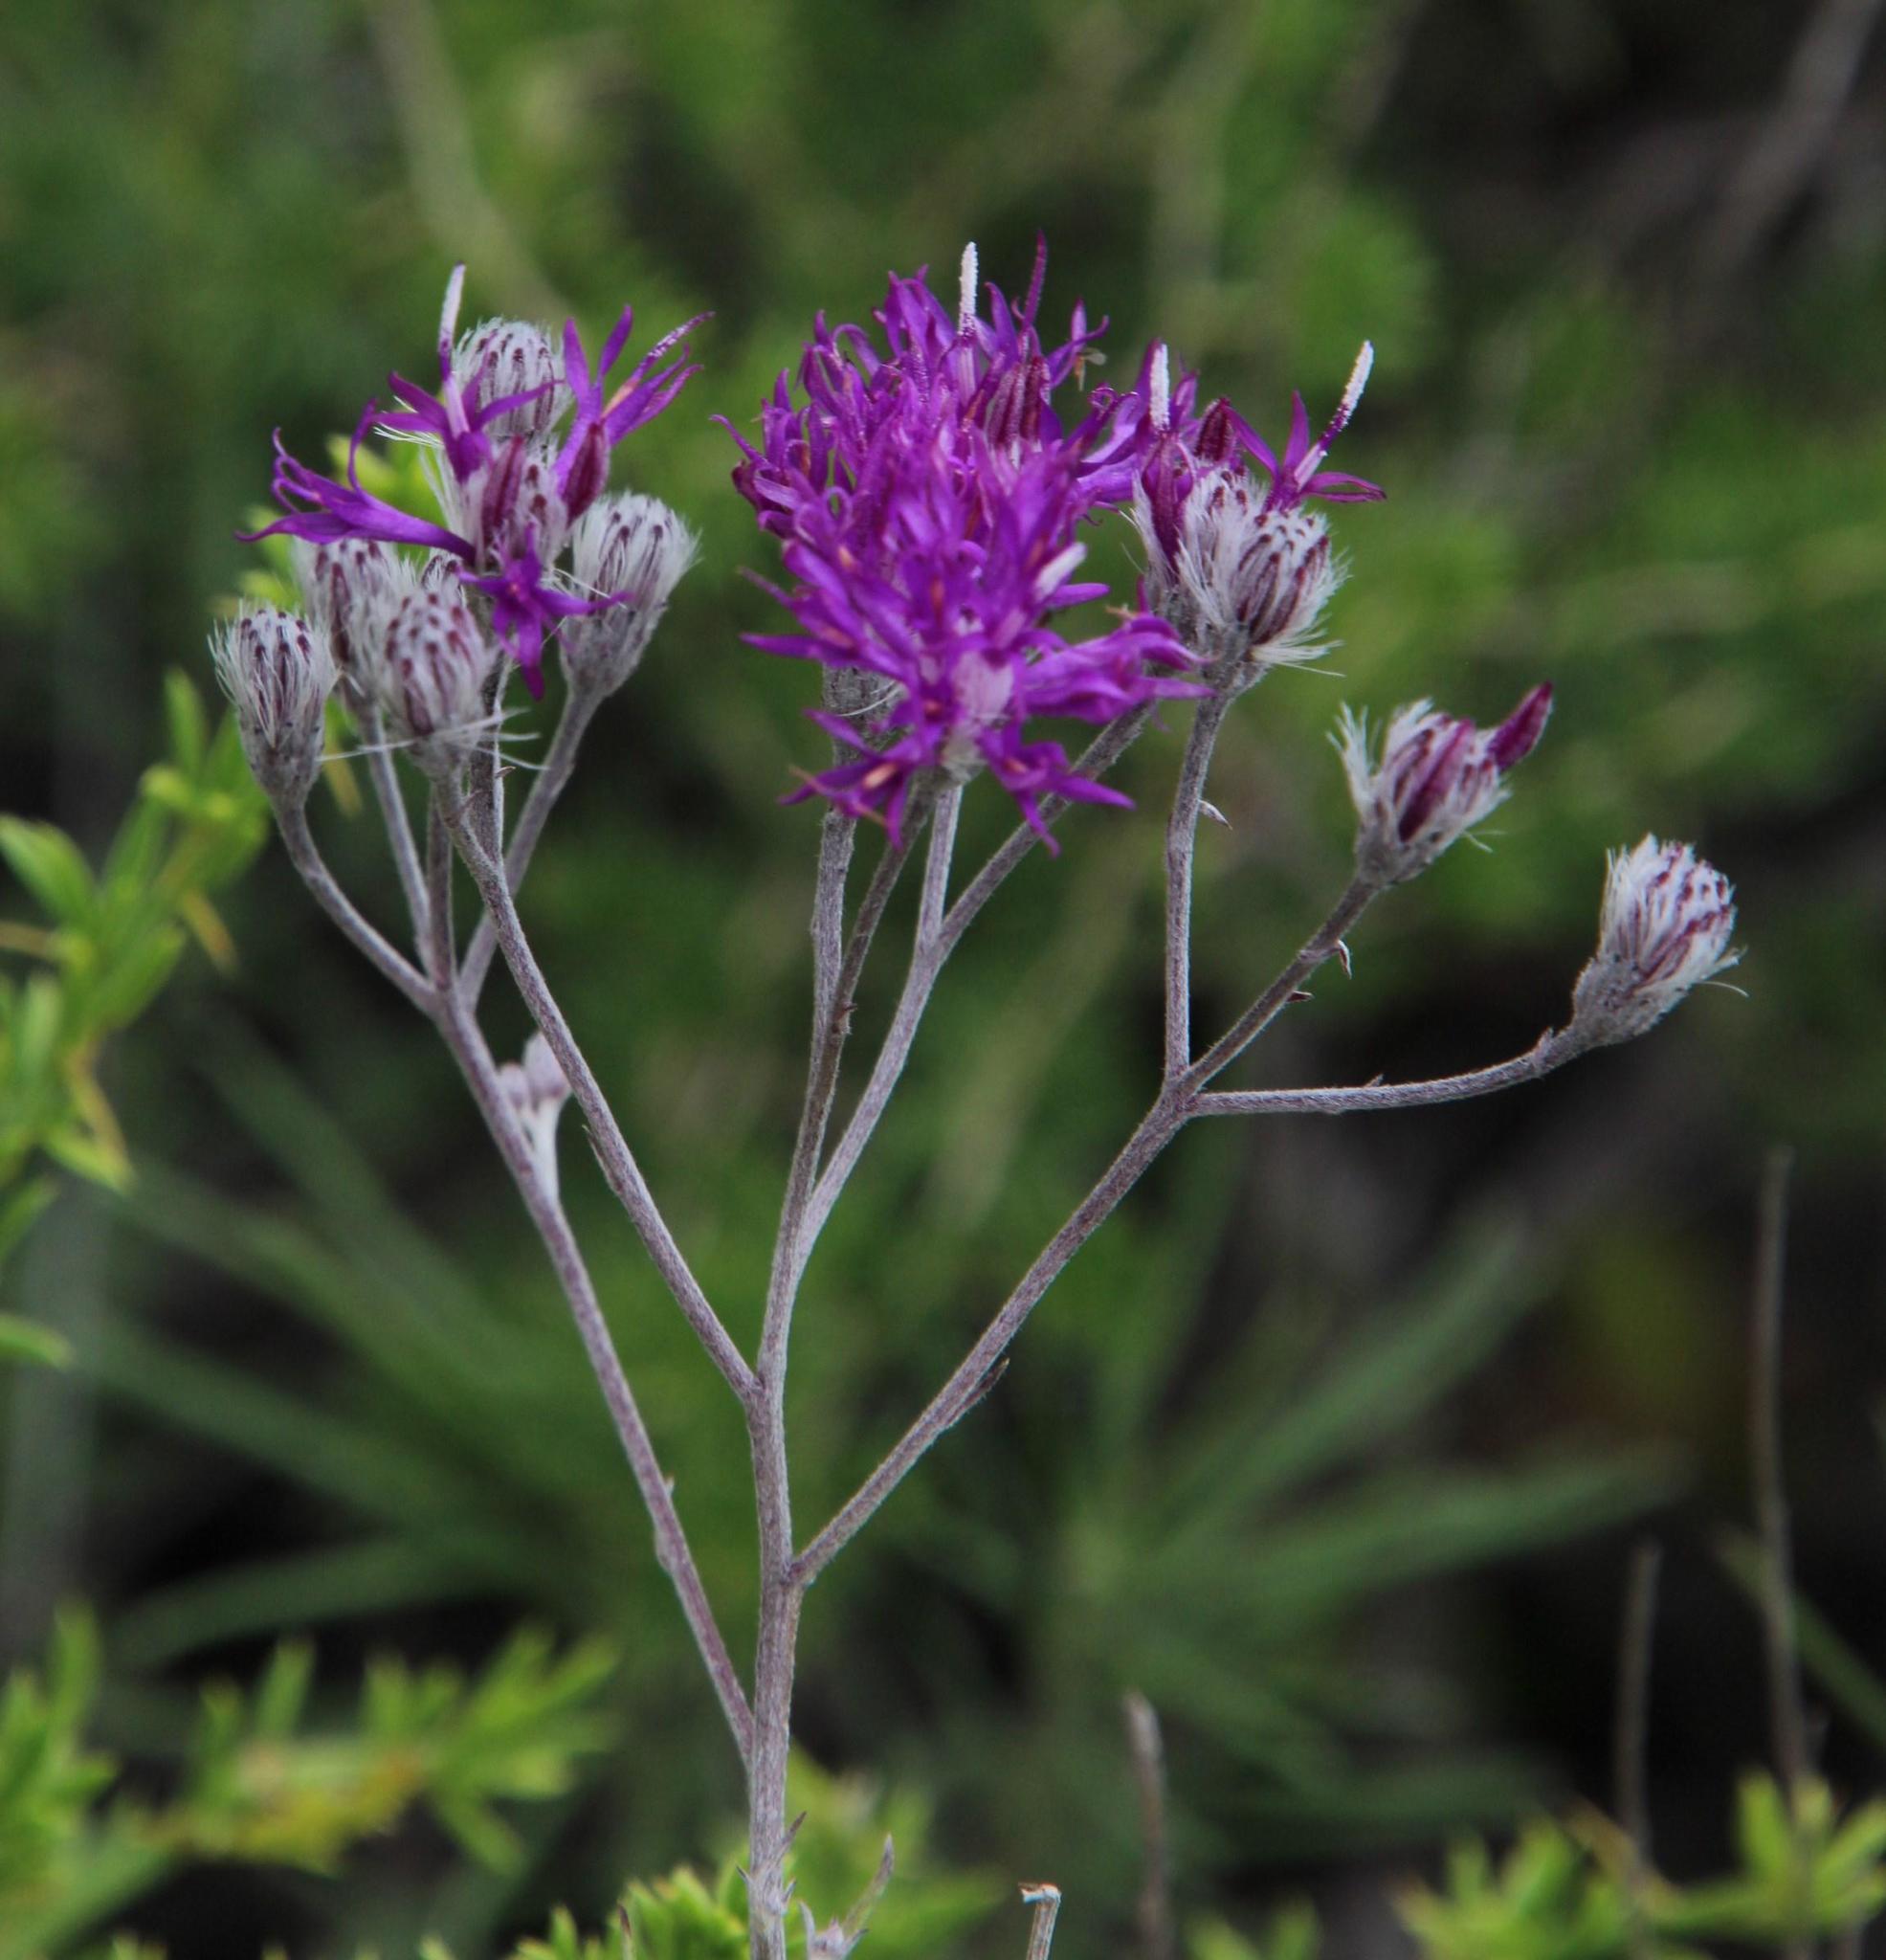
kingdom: Plantae
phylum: Tracheophyta
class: Magnoliopsida
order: Asterales
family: Asteraceae
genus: Hilliardiella
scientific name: Hilliardiella capensis
